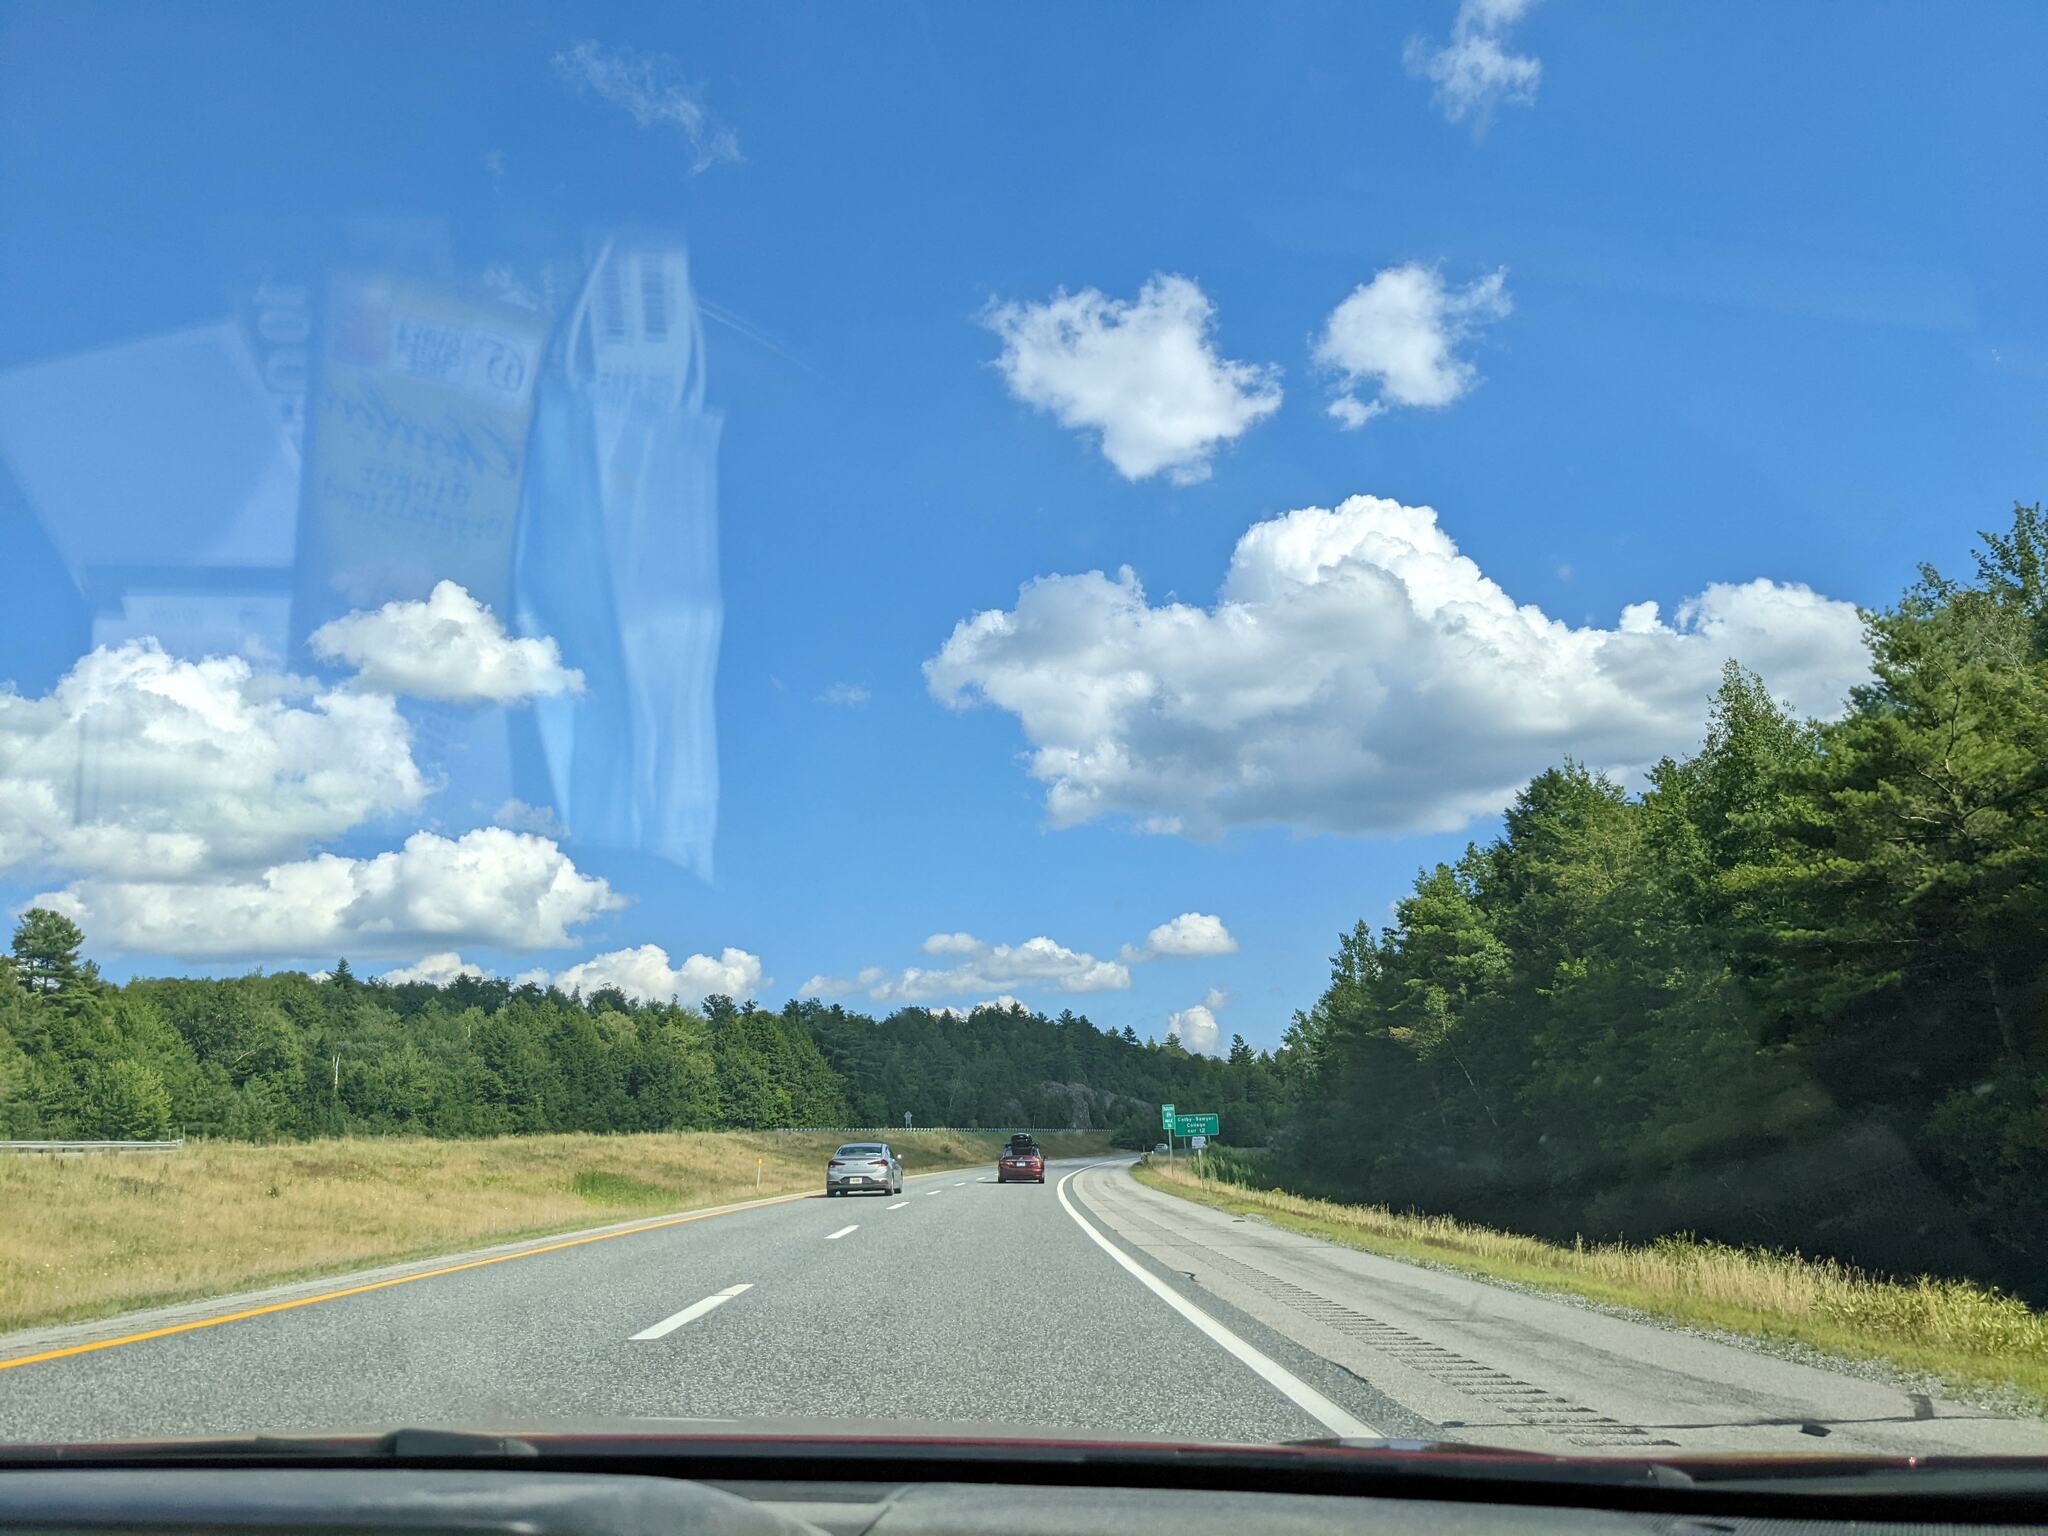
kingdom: Plantae
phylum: Tracheophyta
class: Pinopsida
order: Pinales
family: Pinaceae
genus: Pinus
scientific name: Pinus strobus
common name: Weymouth pine
